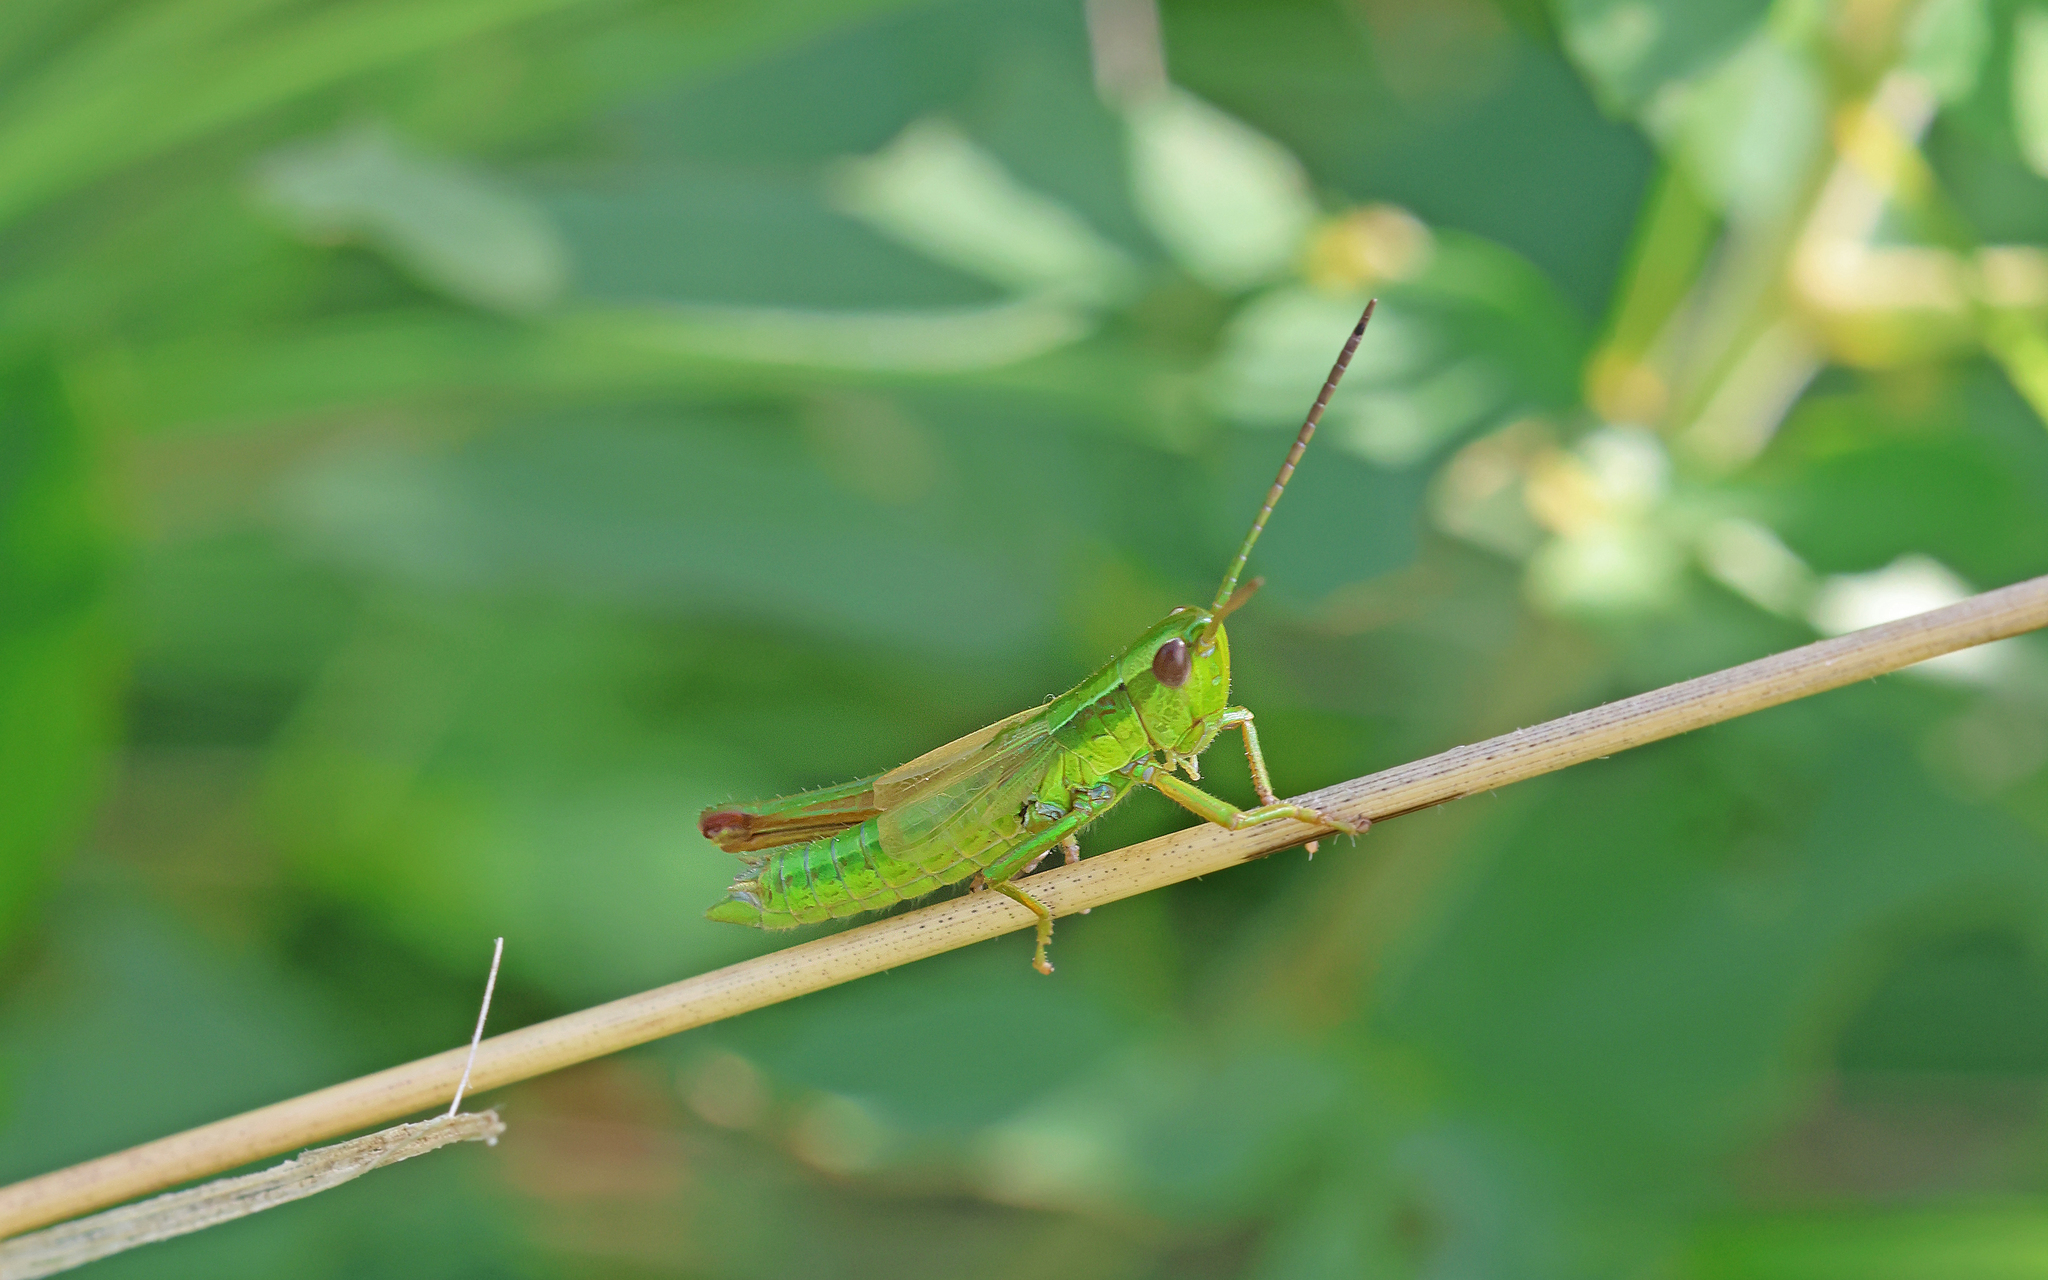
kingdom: Animalia
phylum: Arthropoda
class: Insecta
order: Orthoptera
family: Acrididae
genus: Euthystira
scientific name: Euthystira brachyptera
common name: Small gold grasshopper
